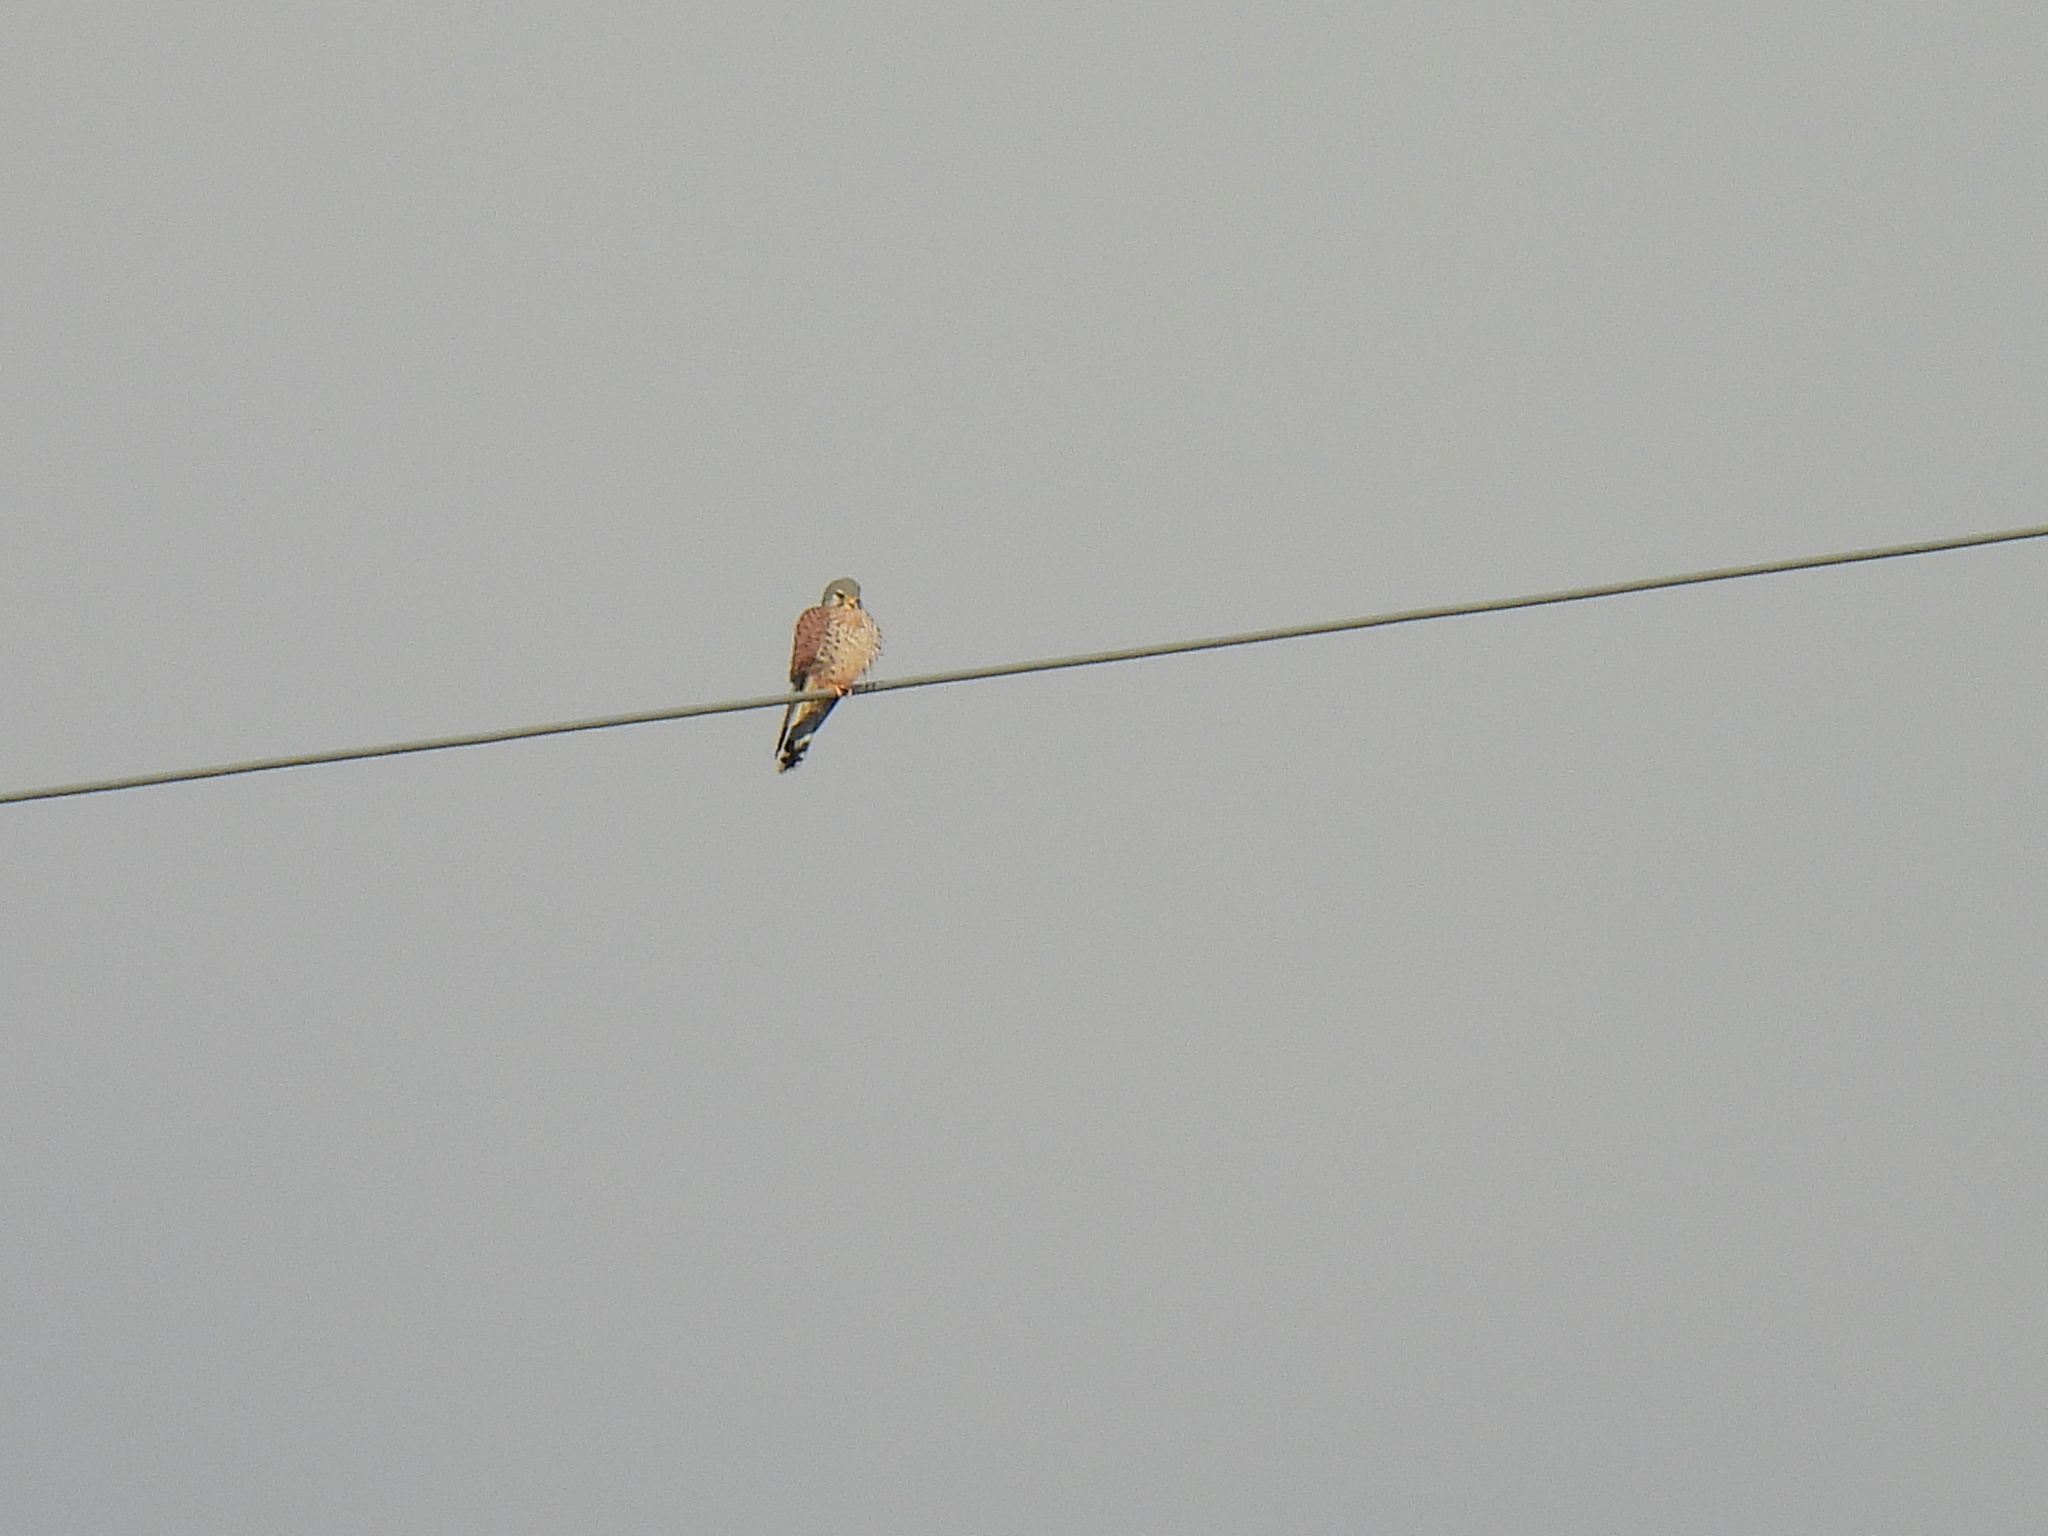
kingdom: Animalia
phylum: Chordata
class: Aves
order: Falconiformes
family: Falconidae
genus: Falco
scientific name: Falco tinnunculus
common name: Common kestrel
